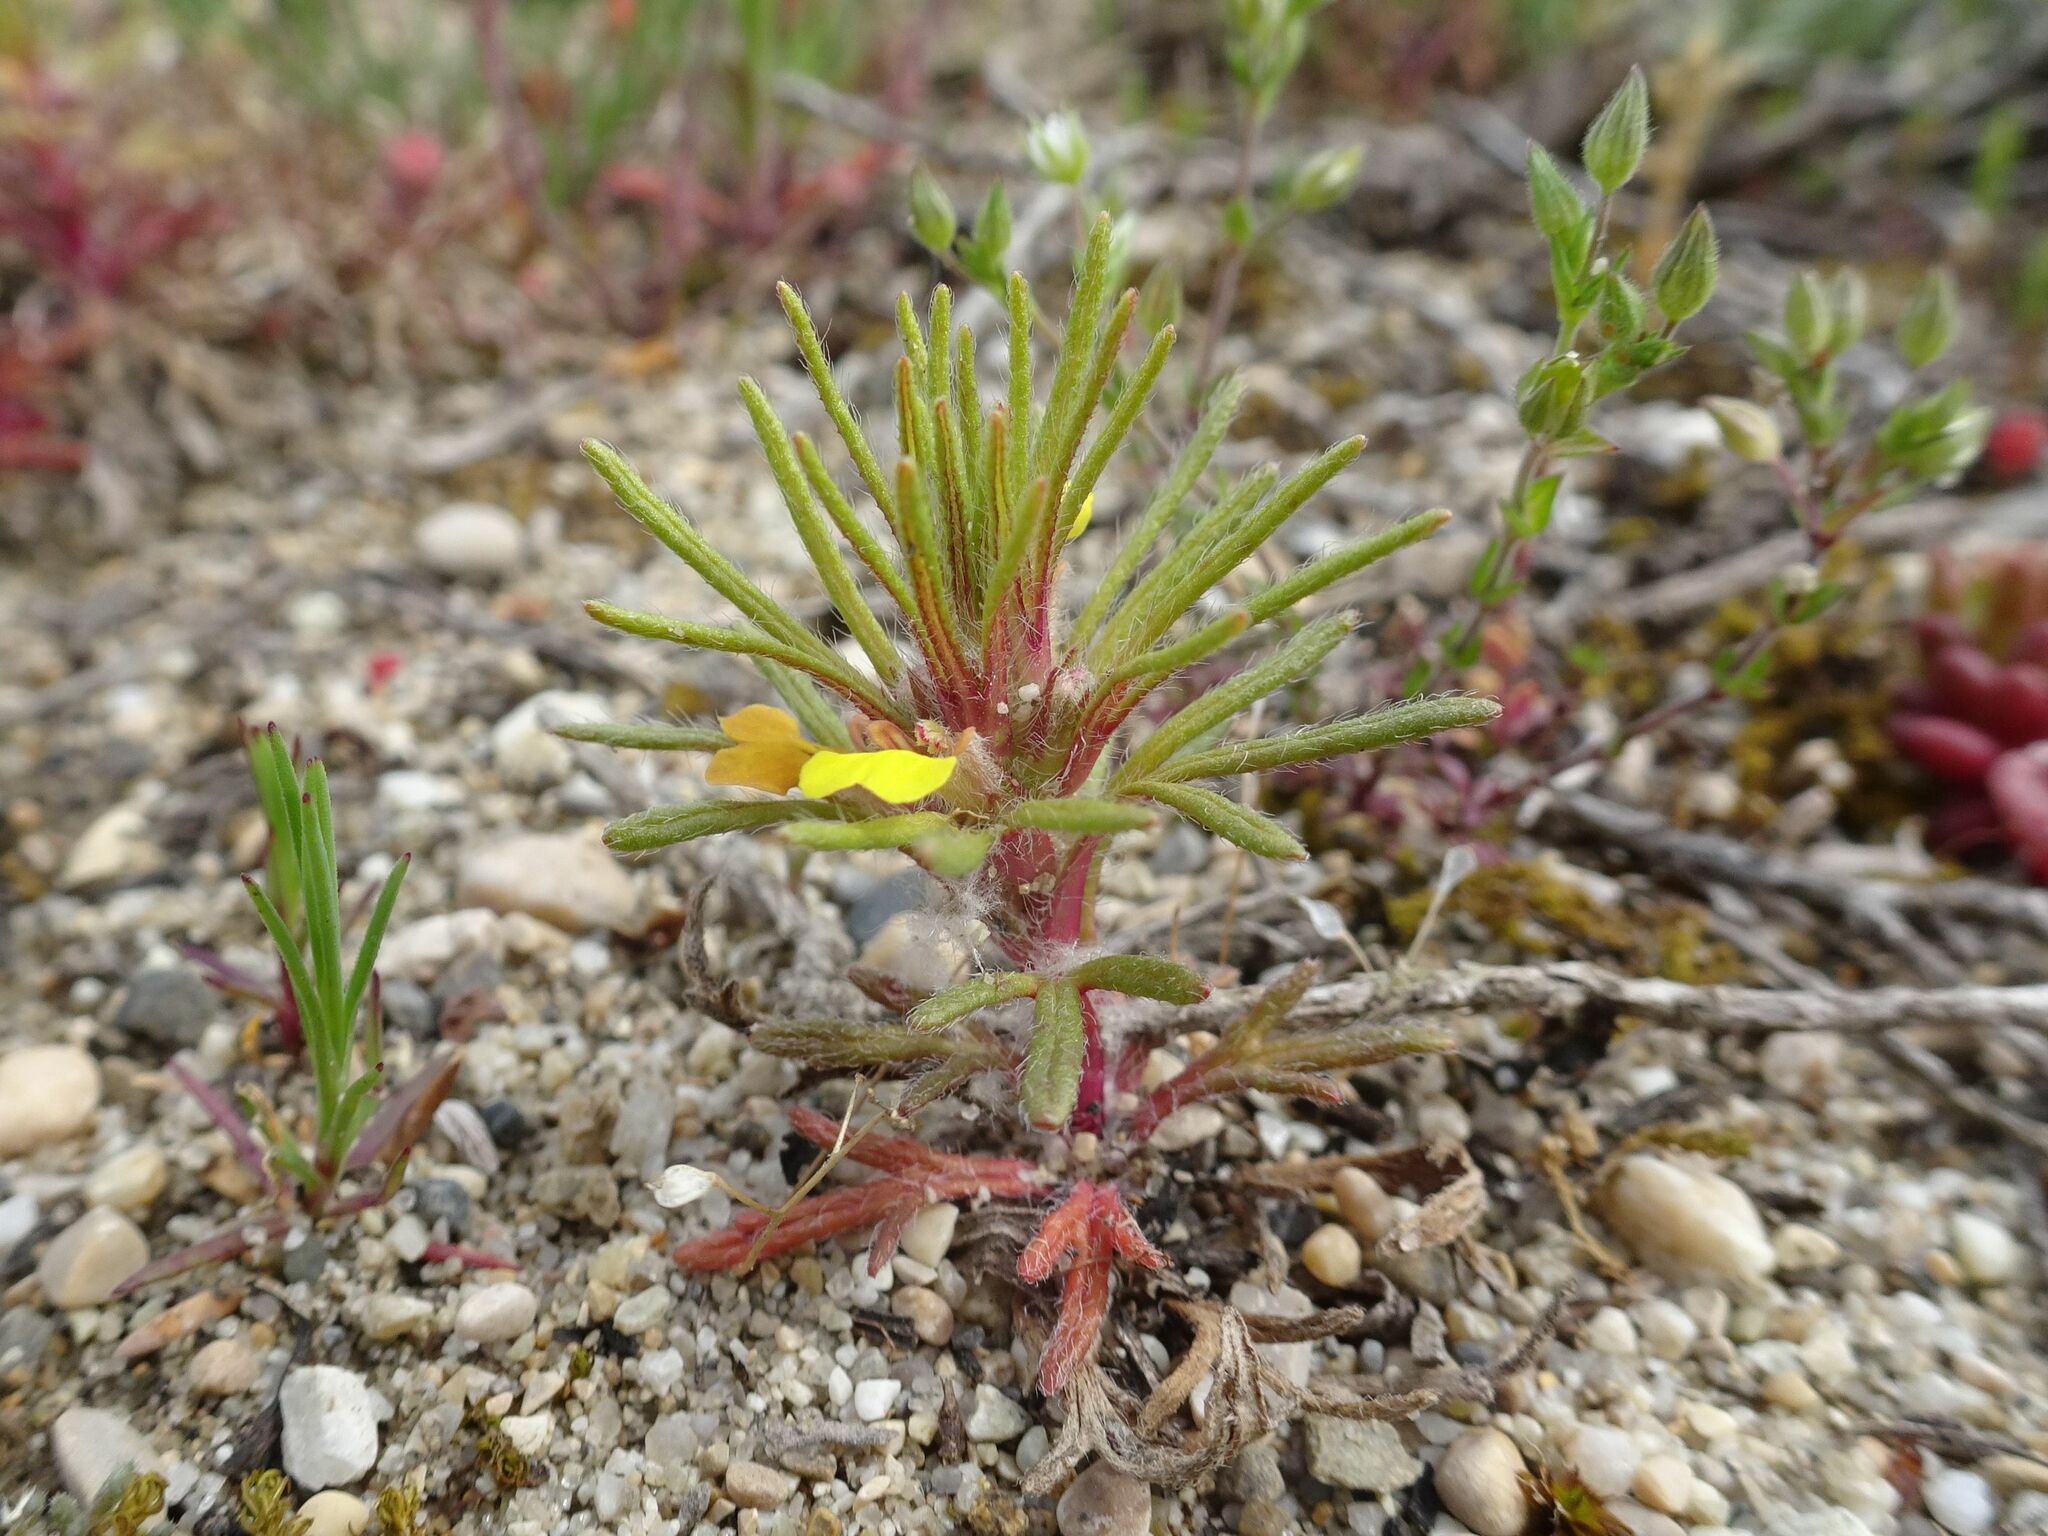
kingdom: Plantae
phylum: Tracheophyta
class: Magnoliopsida
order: Lamiales
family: Lamiaceae
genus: Ajuga
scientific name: Ajuga chamaepitys
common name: Ground-pine
